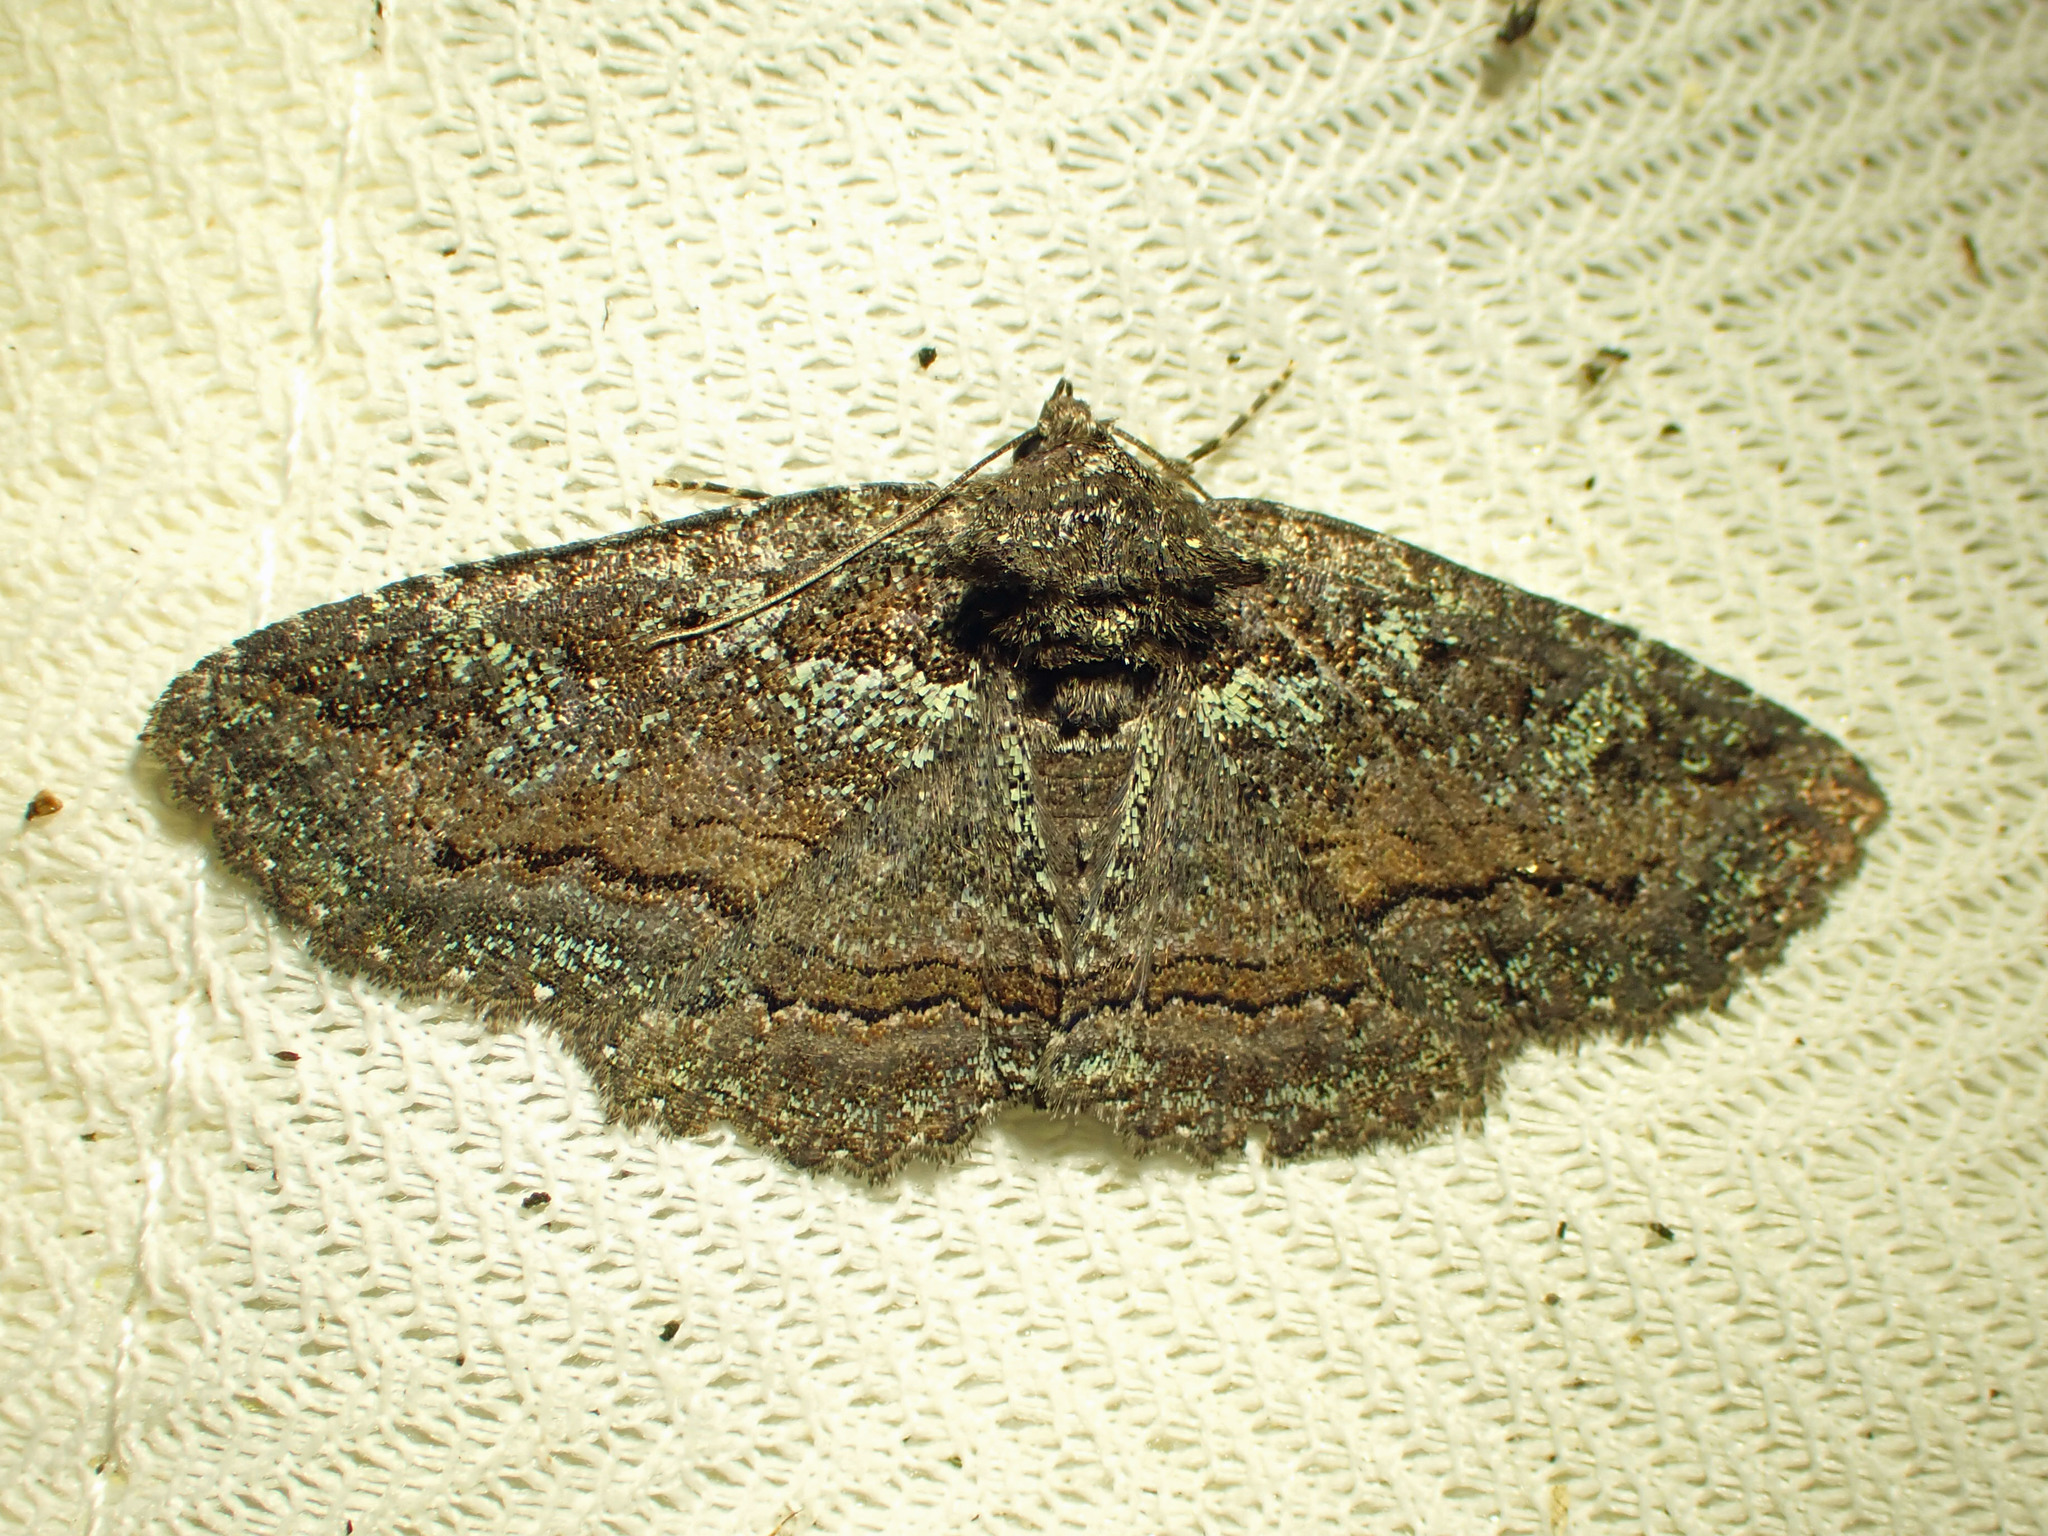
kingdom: Animalia
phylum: Arthropoda
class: Insecta
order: Lepidoptera
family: Erebidae
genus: Zale
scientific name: Zale aeruginosa
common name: Green-dusted zale moth
